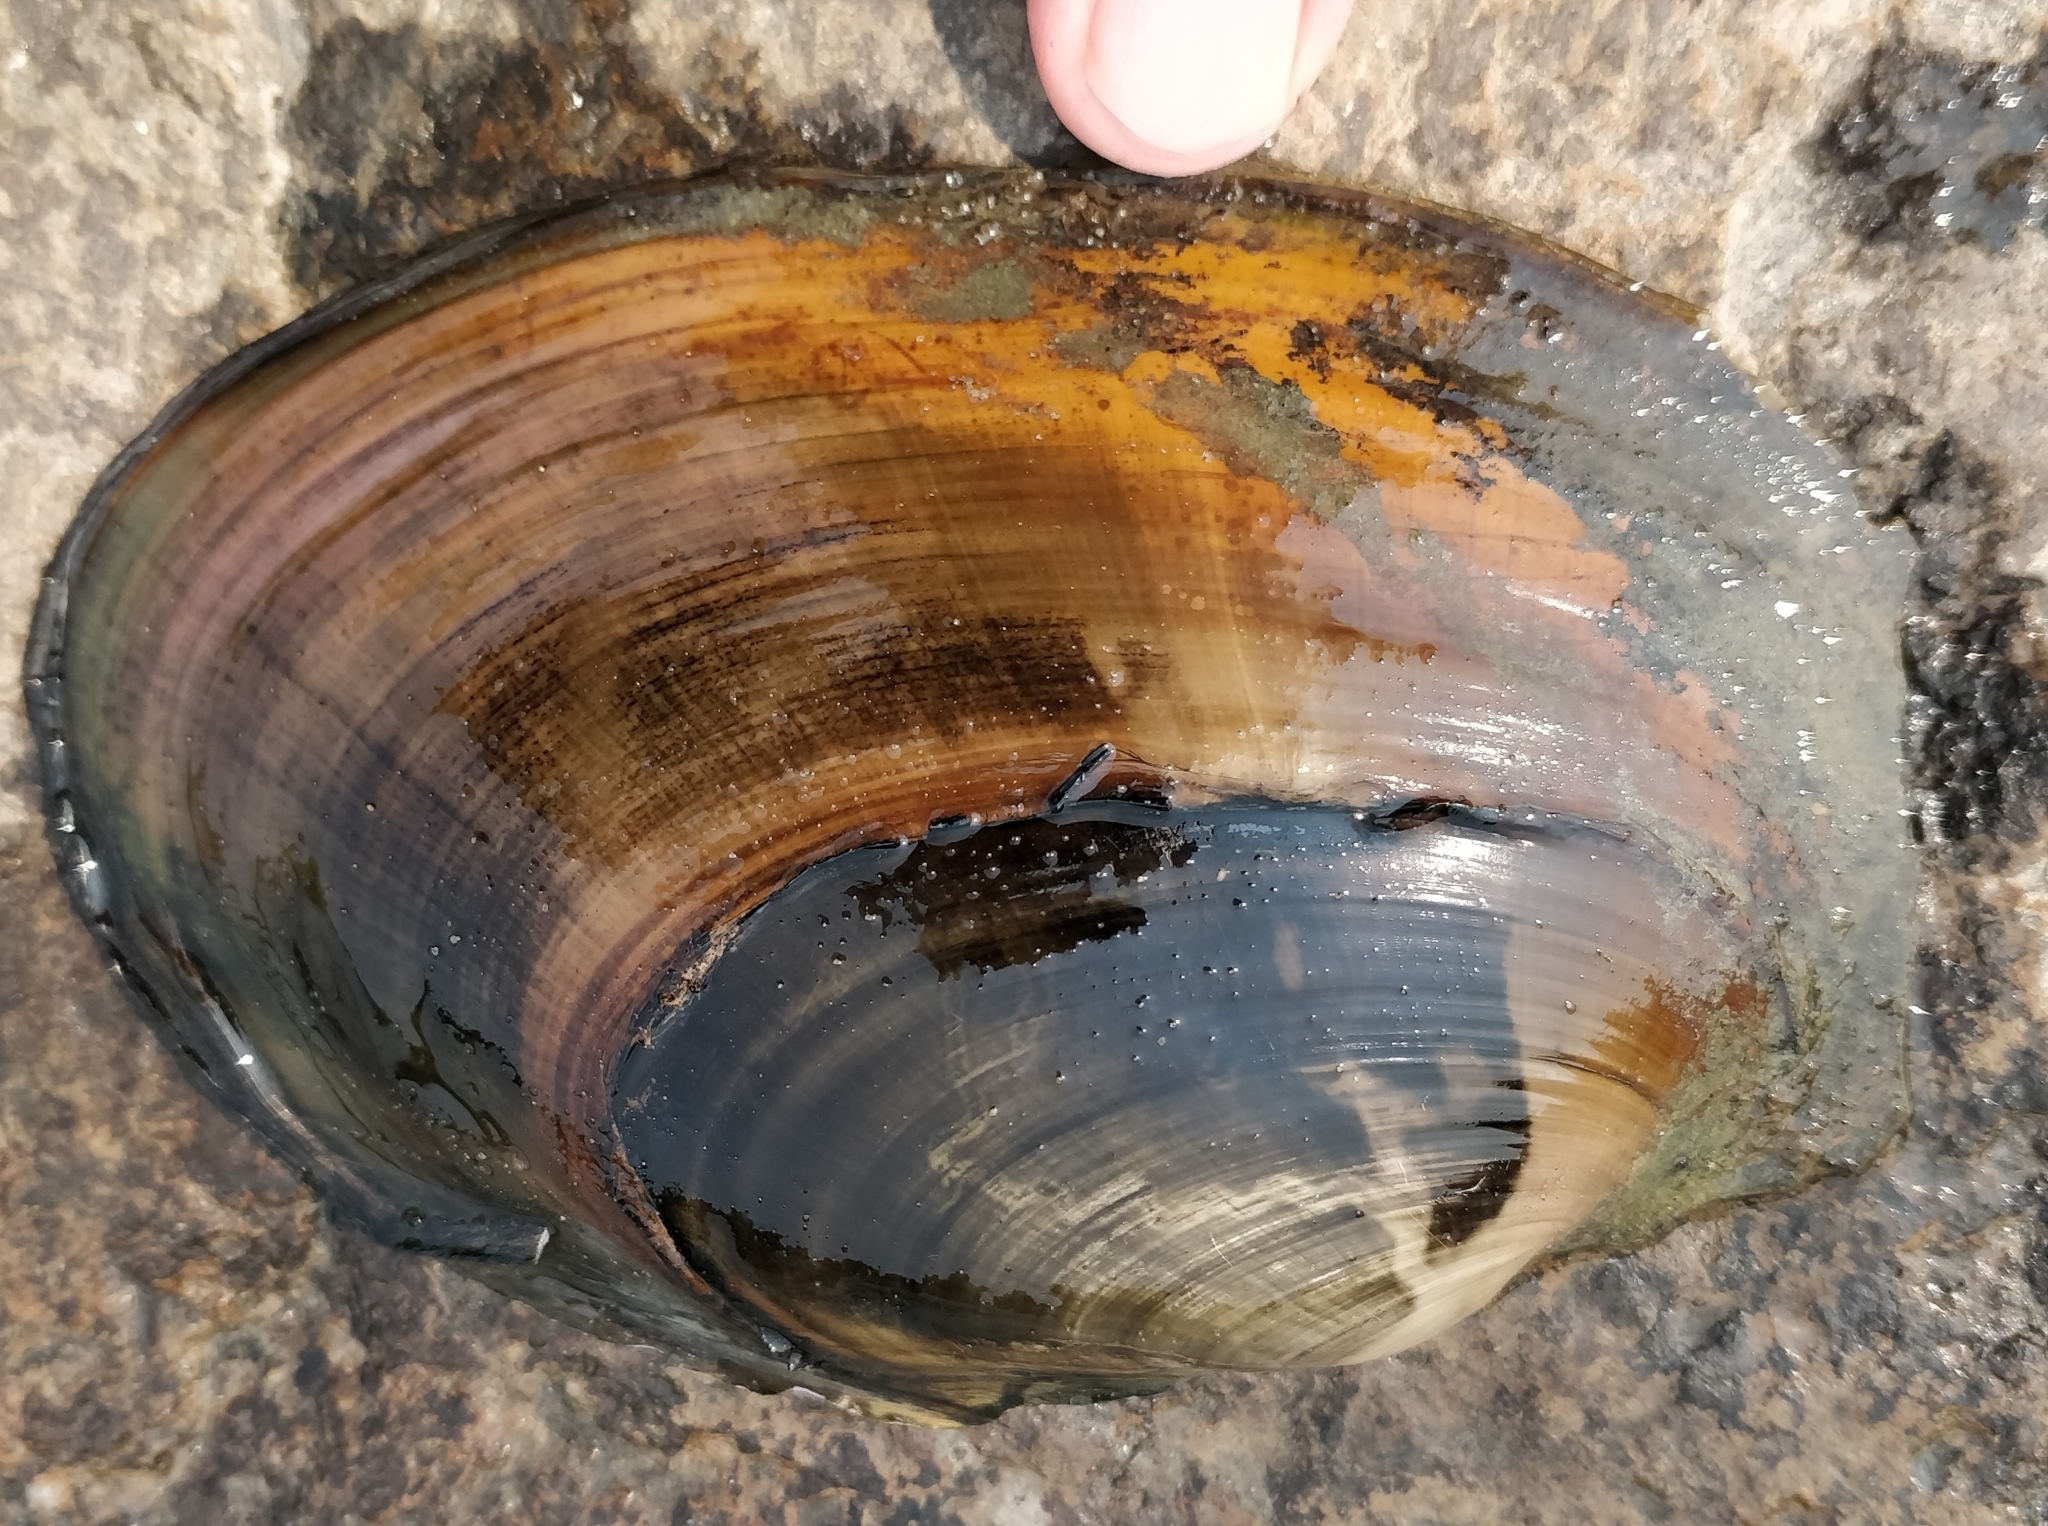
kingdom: Animalia
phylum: Mollusca
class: Bivalvia
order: Unionida
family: Unionidae
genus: Potamilus
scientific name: Potamilus ohiensis
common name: Pink papershell
